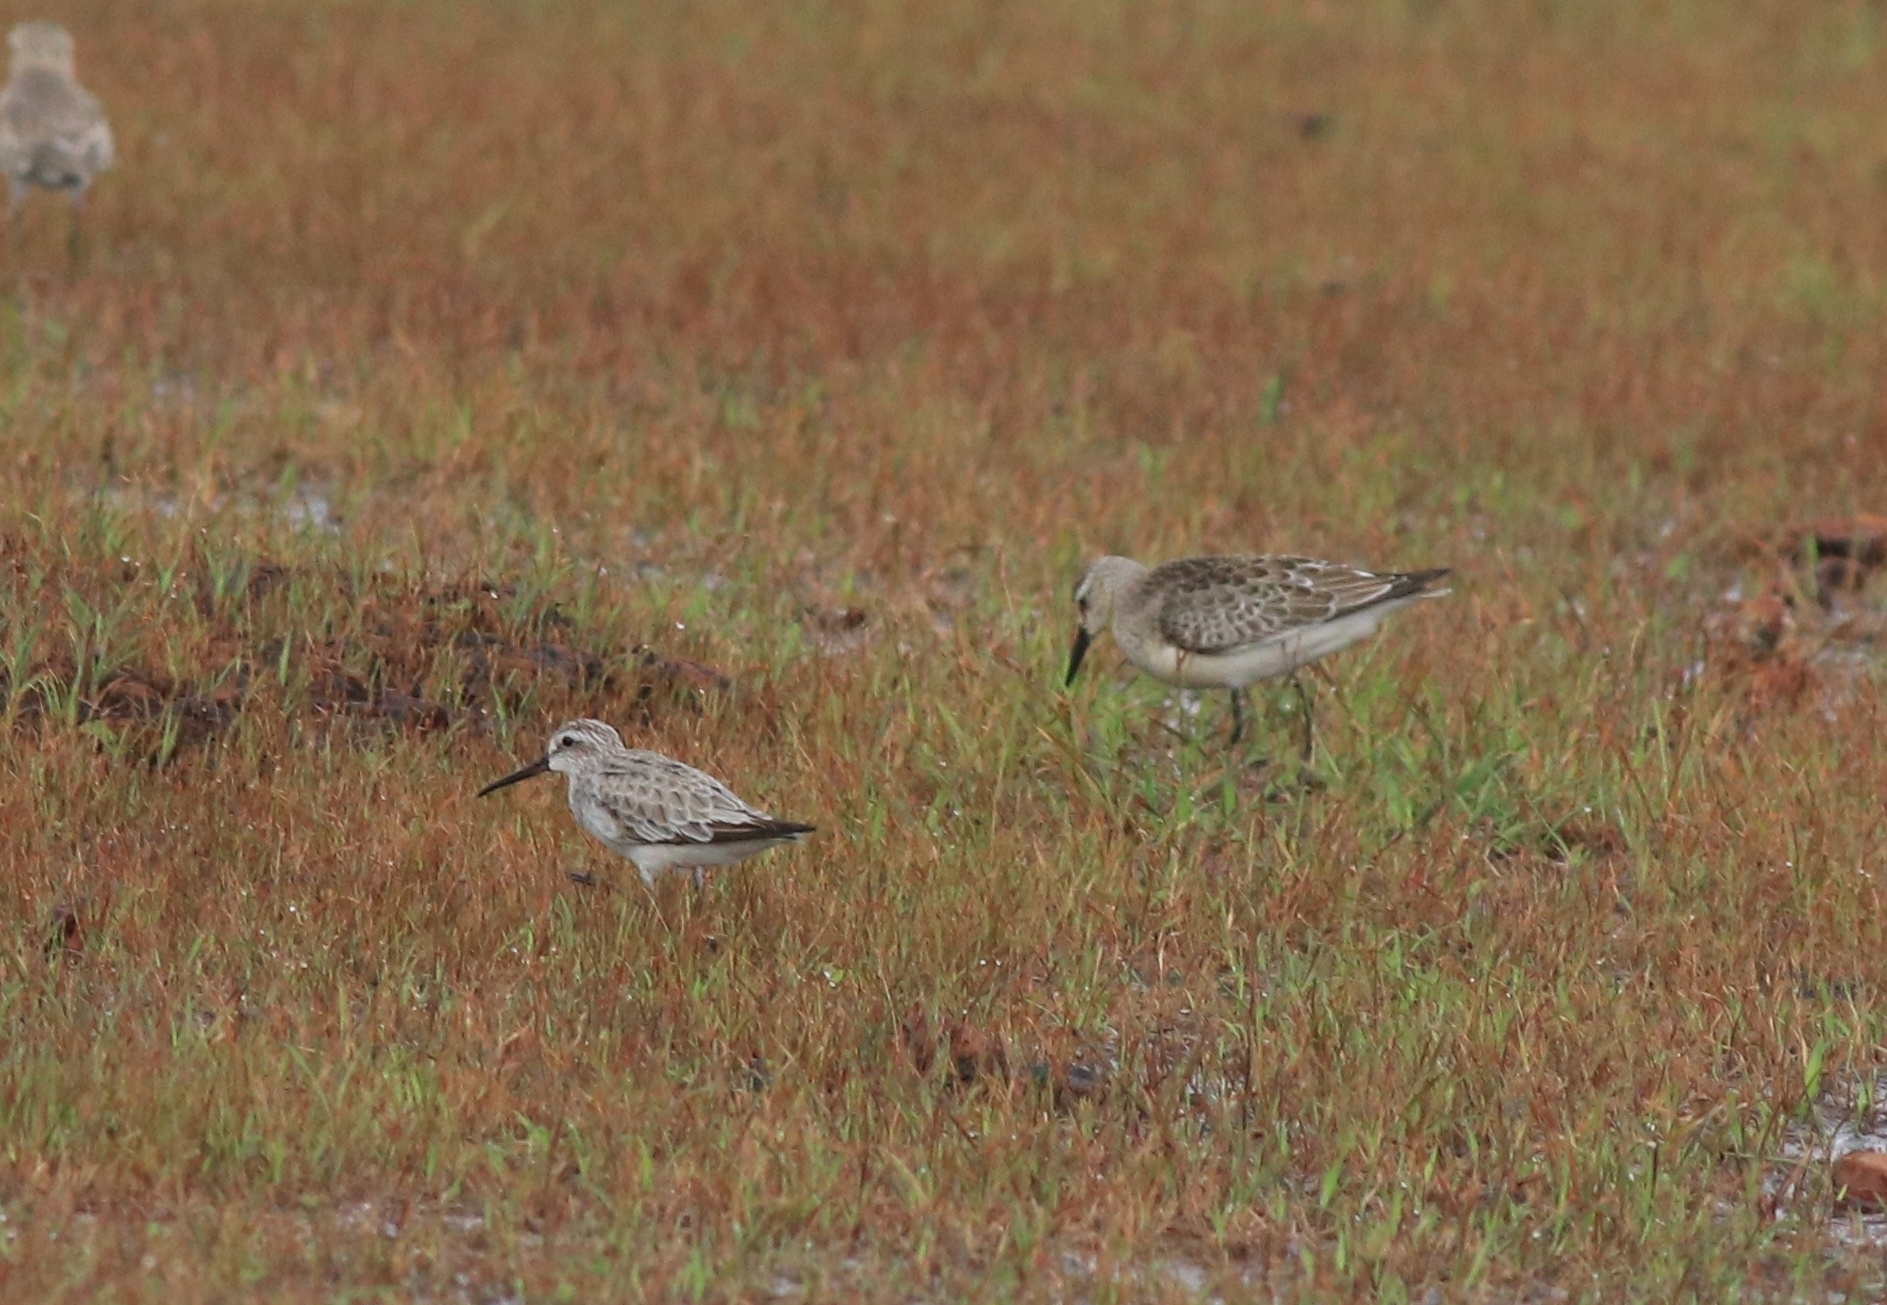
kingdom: Animalia
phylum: Chordata
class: Aves
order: Charadriiformes
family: Scolopacidae
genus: Calidris
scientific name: Calidris ferruginea
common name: Curlew sandpiper
